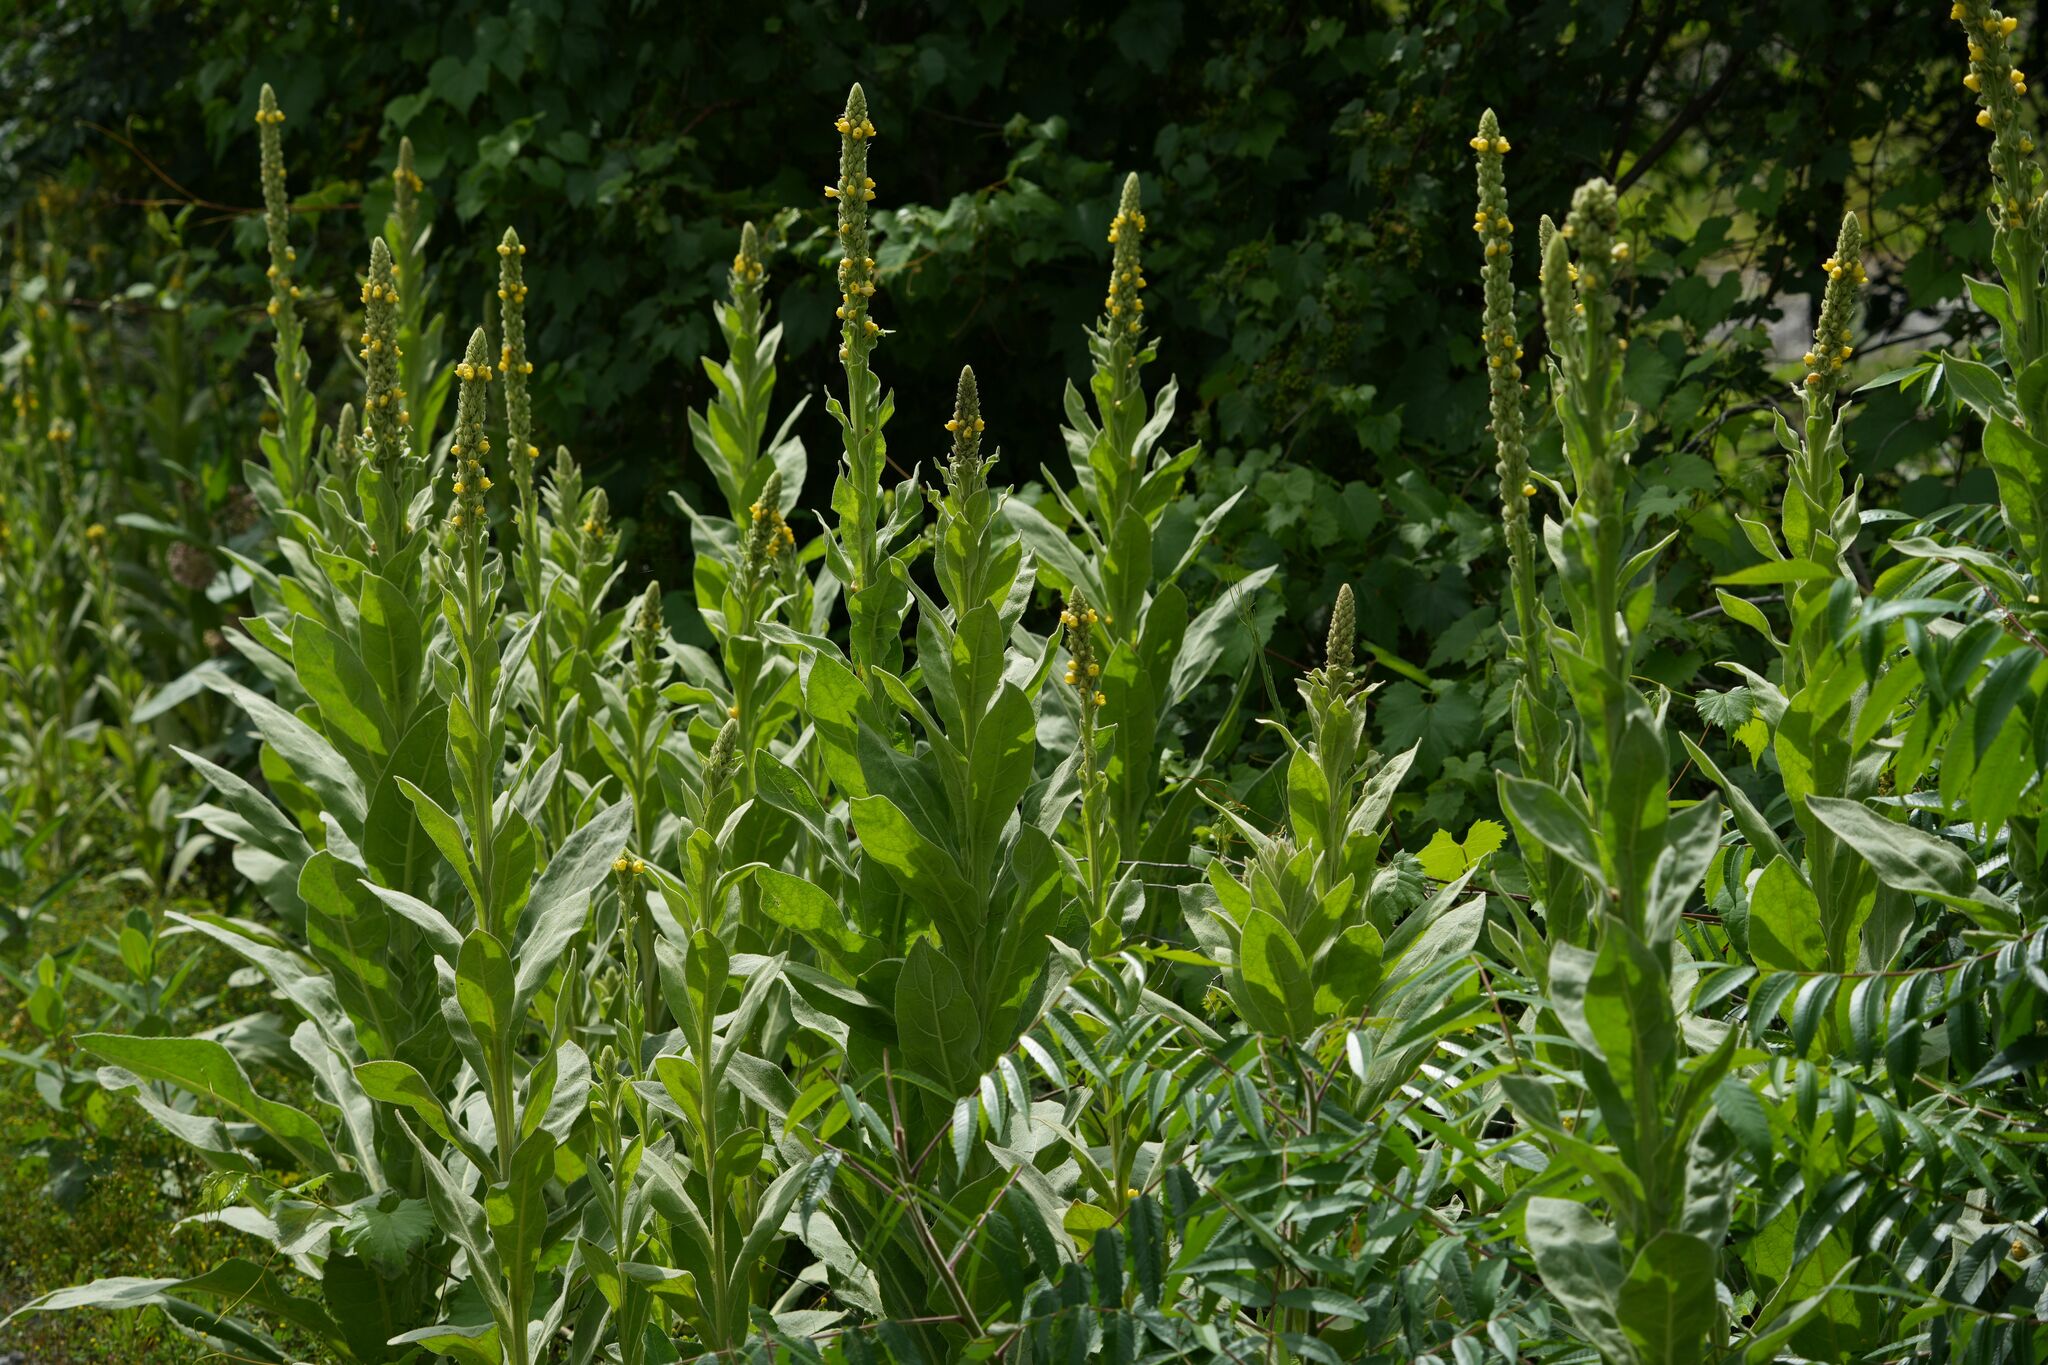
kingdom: Plantae
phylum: Tracheophyta
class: Magnoliopsida
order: Lamiales
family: Scrophulariaceae
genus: Verbascum
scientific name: Verbascum thapsus
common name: Common mullein
